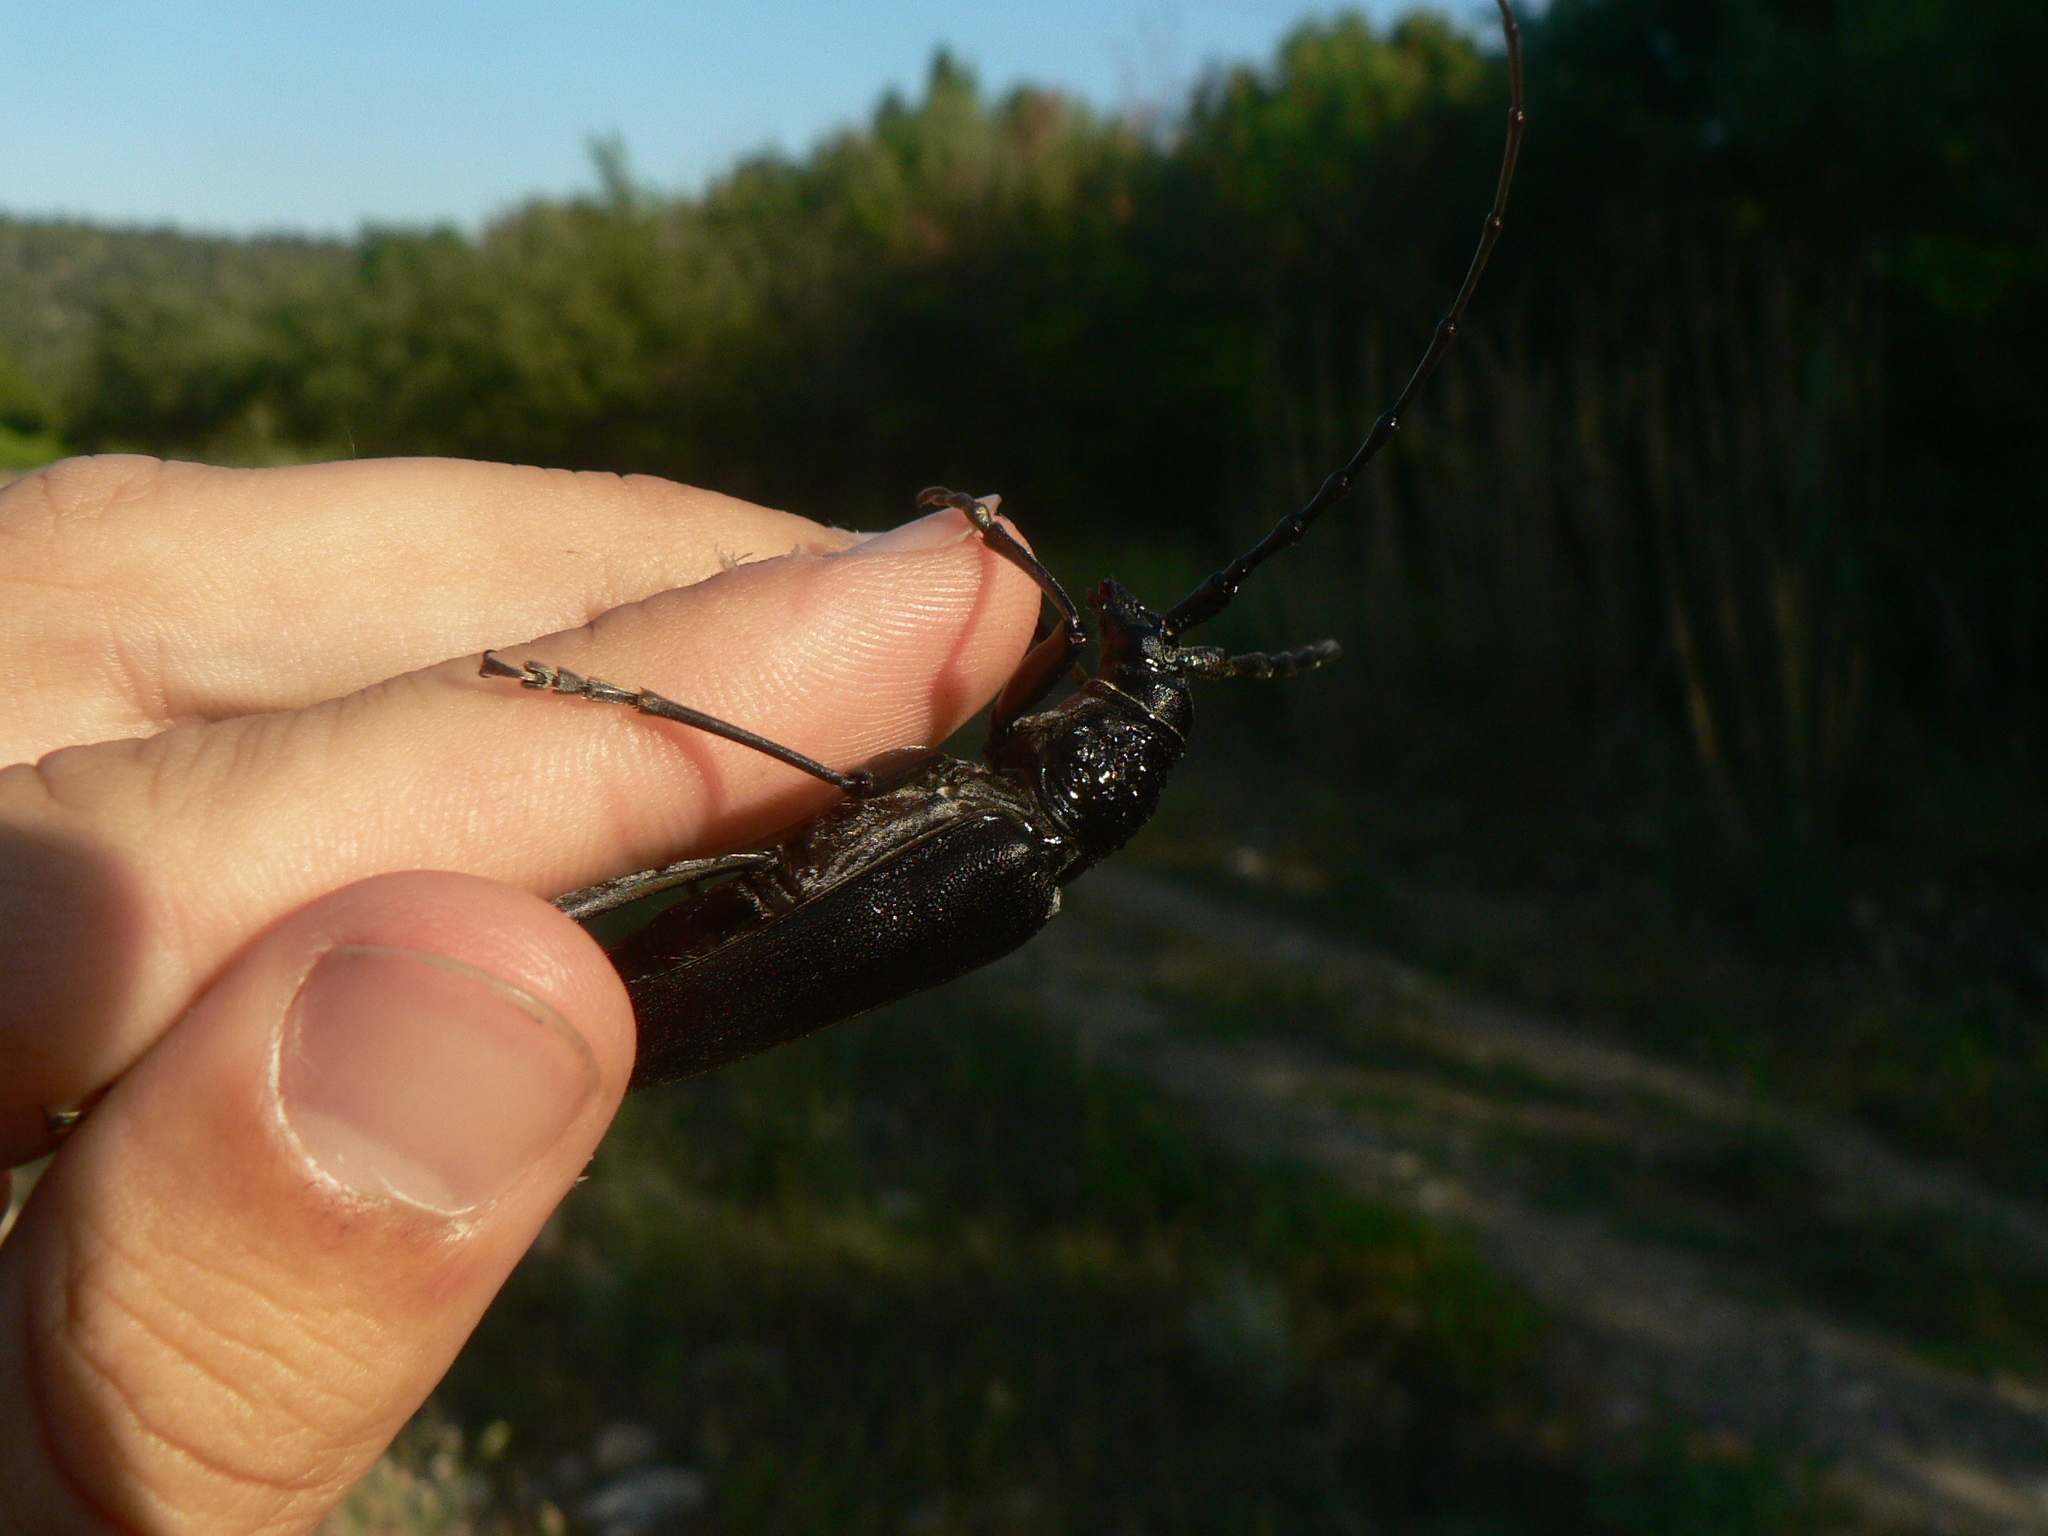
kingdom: Animalia
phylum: Arthropoda
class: Insecta
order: Coleoptera
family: Cerambycidae
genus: Cerambyx
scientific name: Cerambyx cerdo
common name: Cerambyx longicorn
